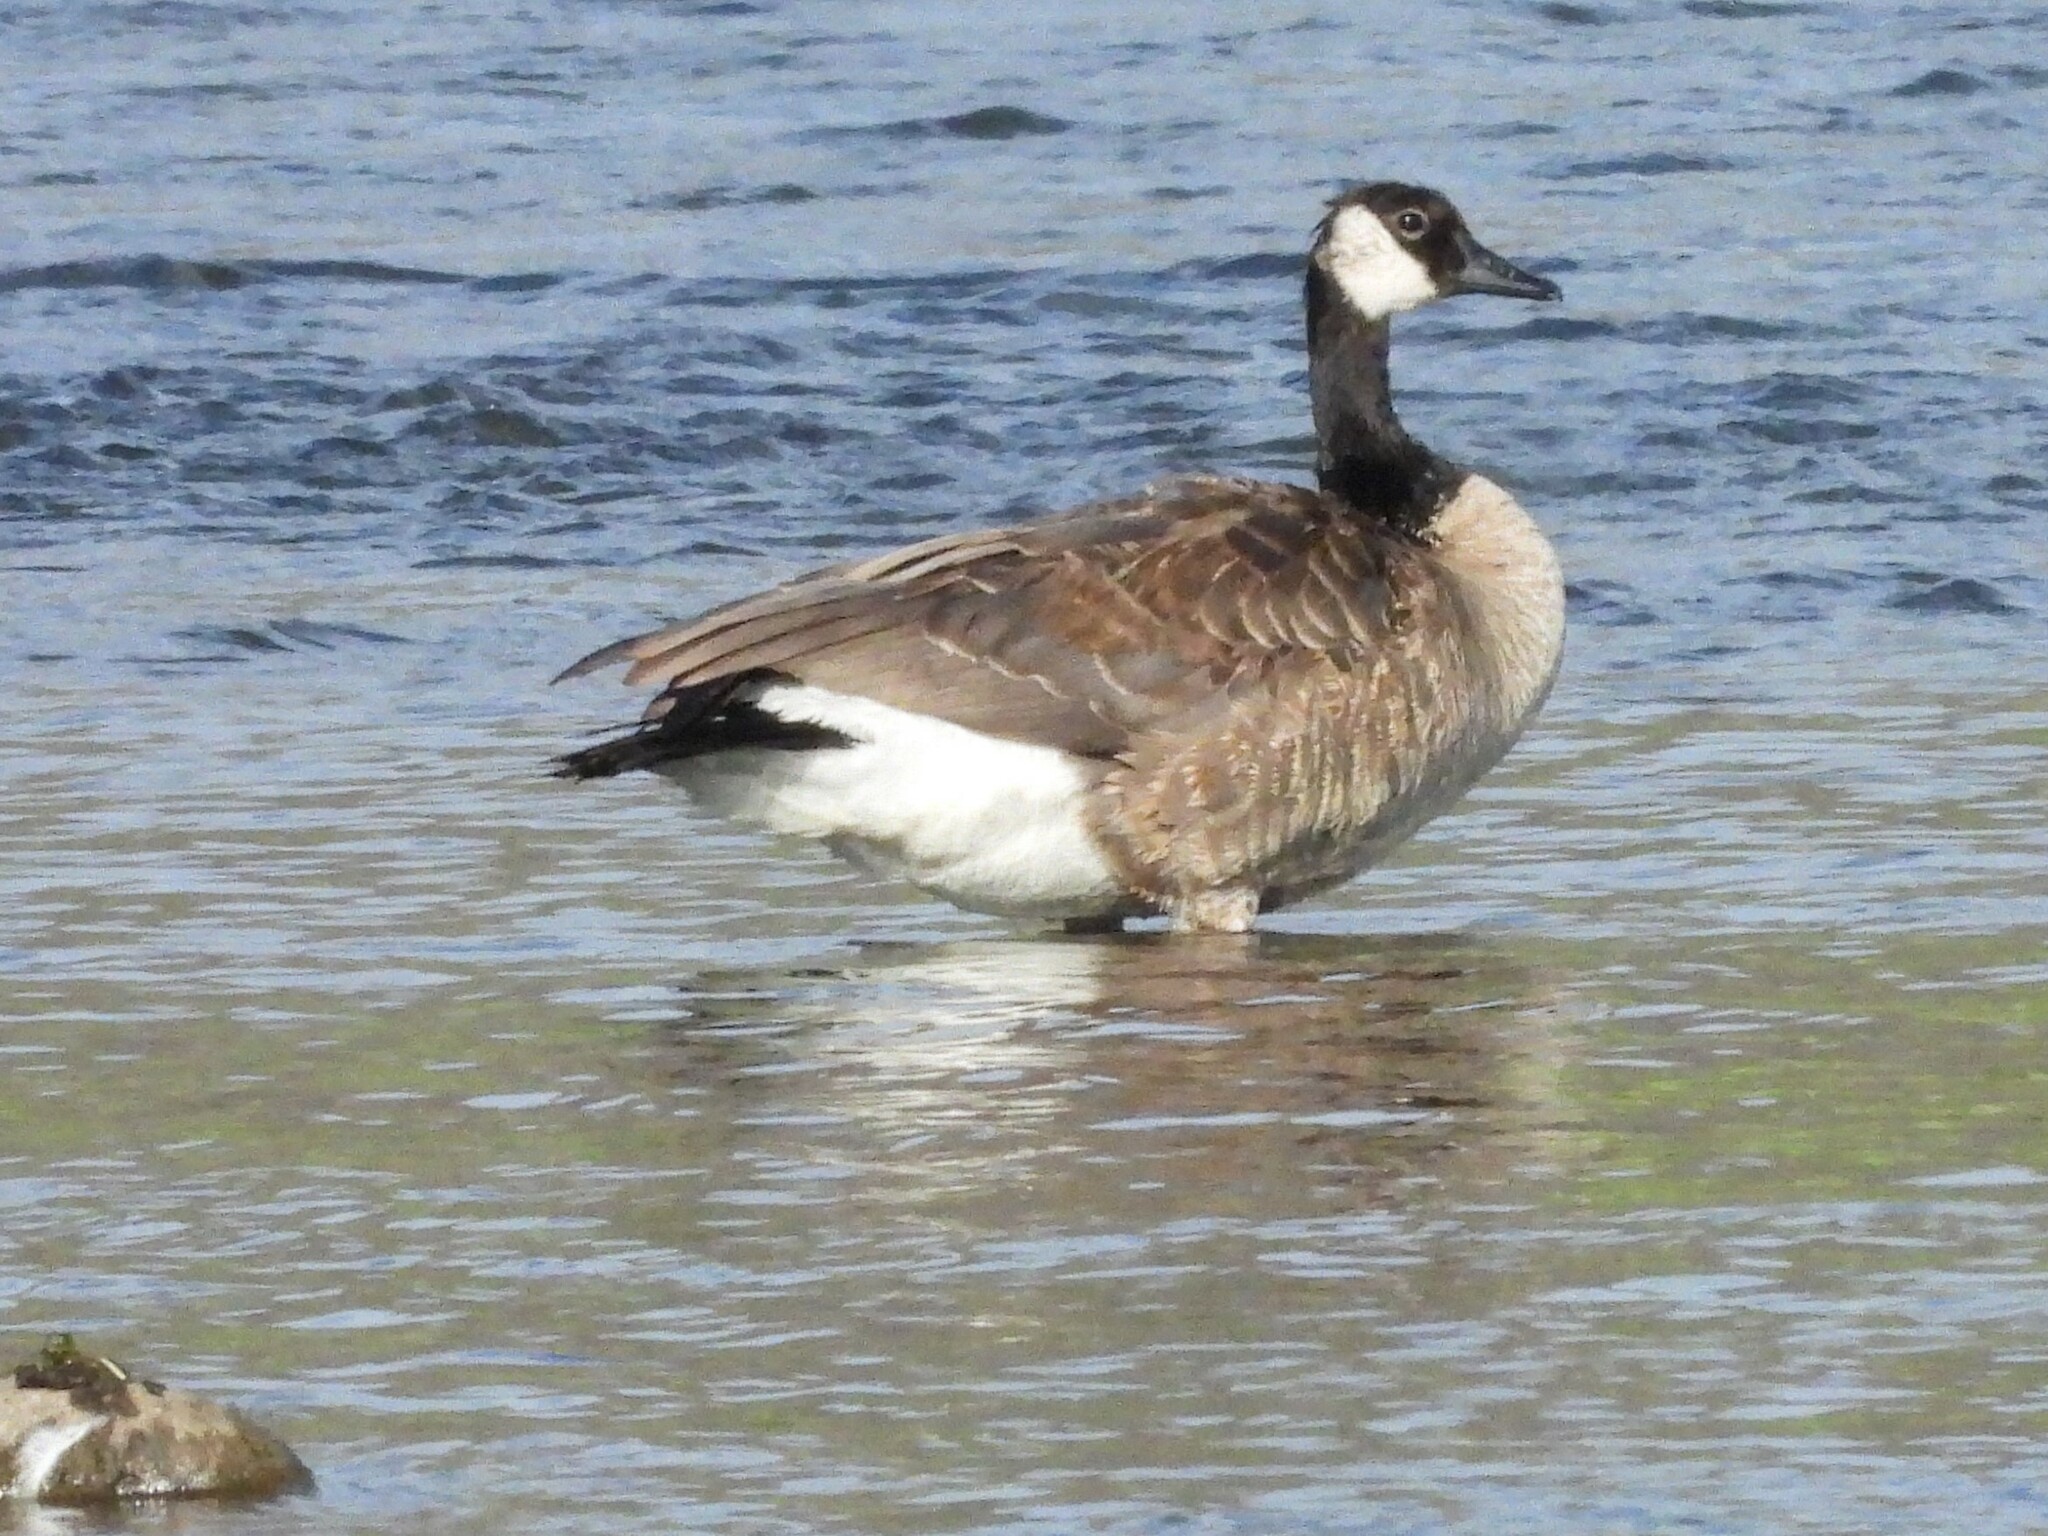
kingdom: Animalia
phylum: Chordata
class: Aves
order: Anseriformes
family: Anatidae
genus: Branta
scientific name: Branta canadensis
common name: Canada goose
